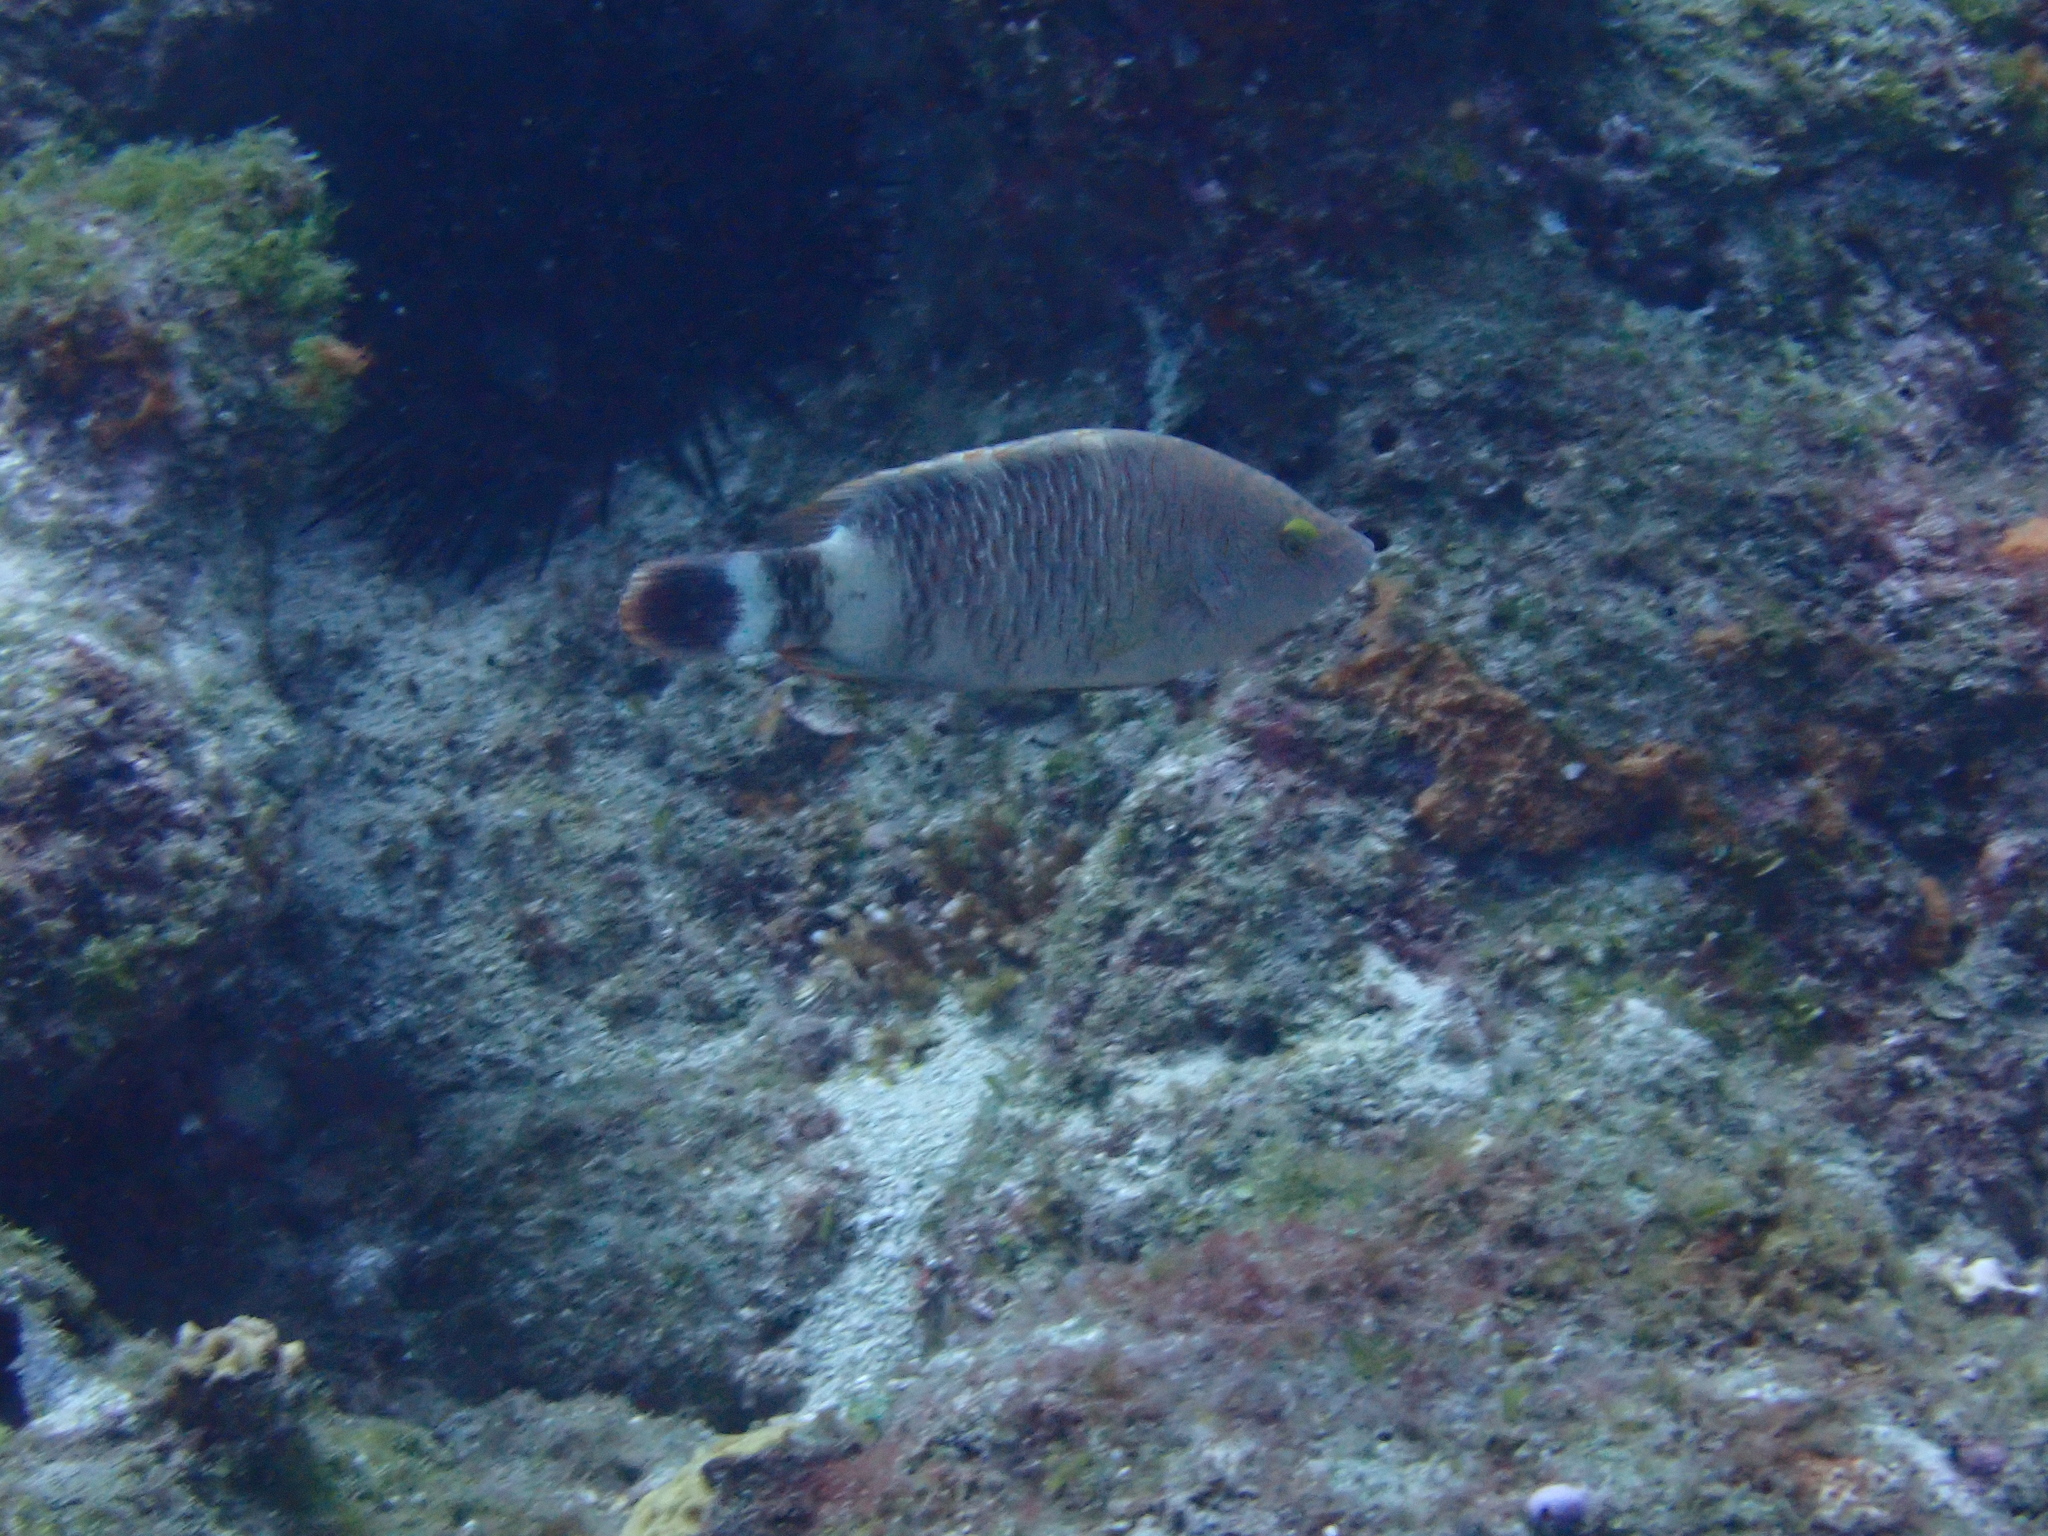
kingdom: Animalia
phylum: Chordata
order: Perciformes
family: Labridae
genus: Cheilinus
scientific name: Cheilinus trilobatus
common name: Tripletail maori wrasse
